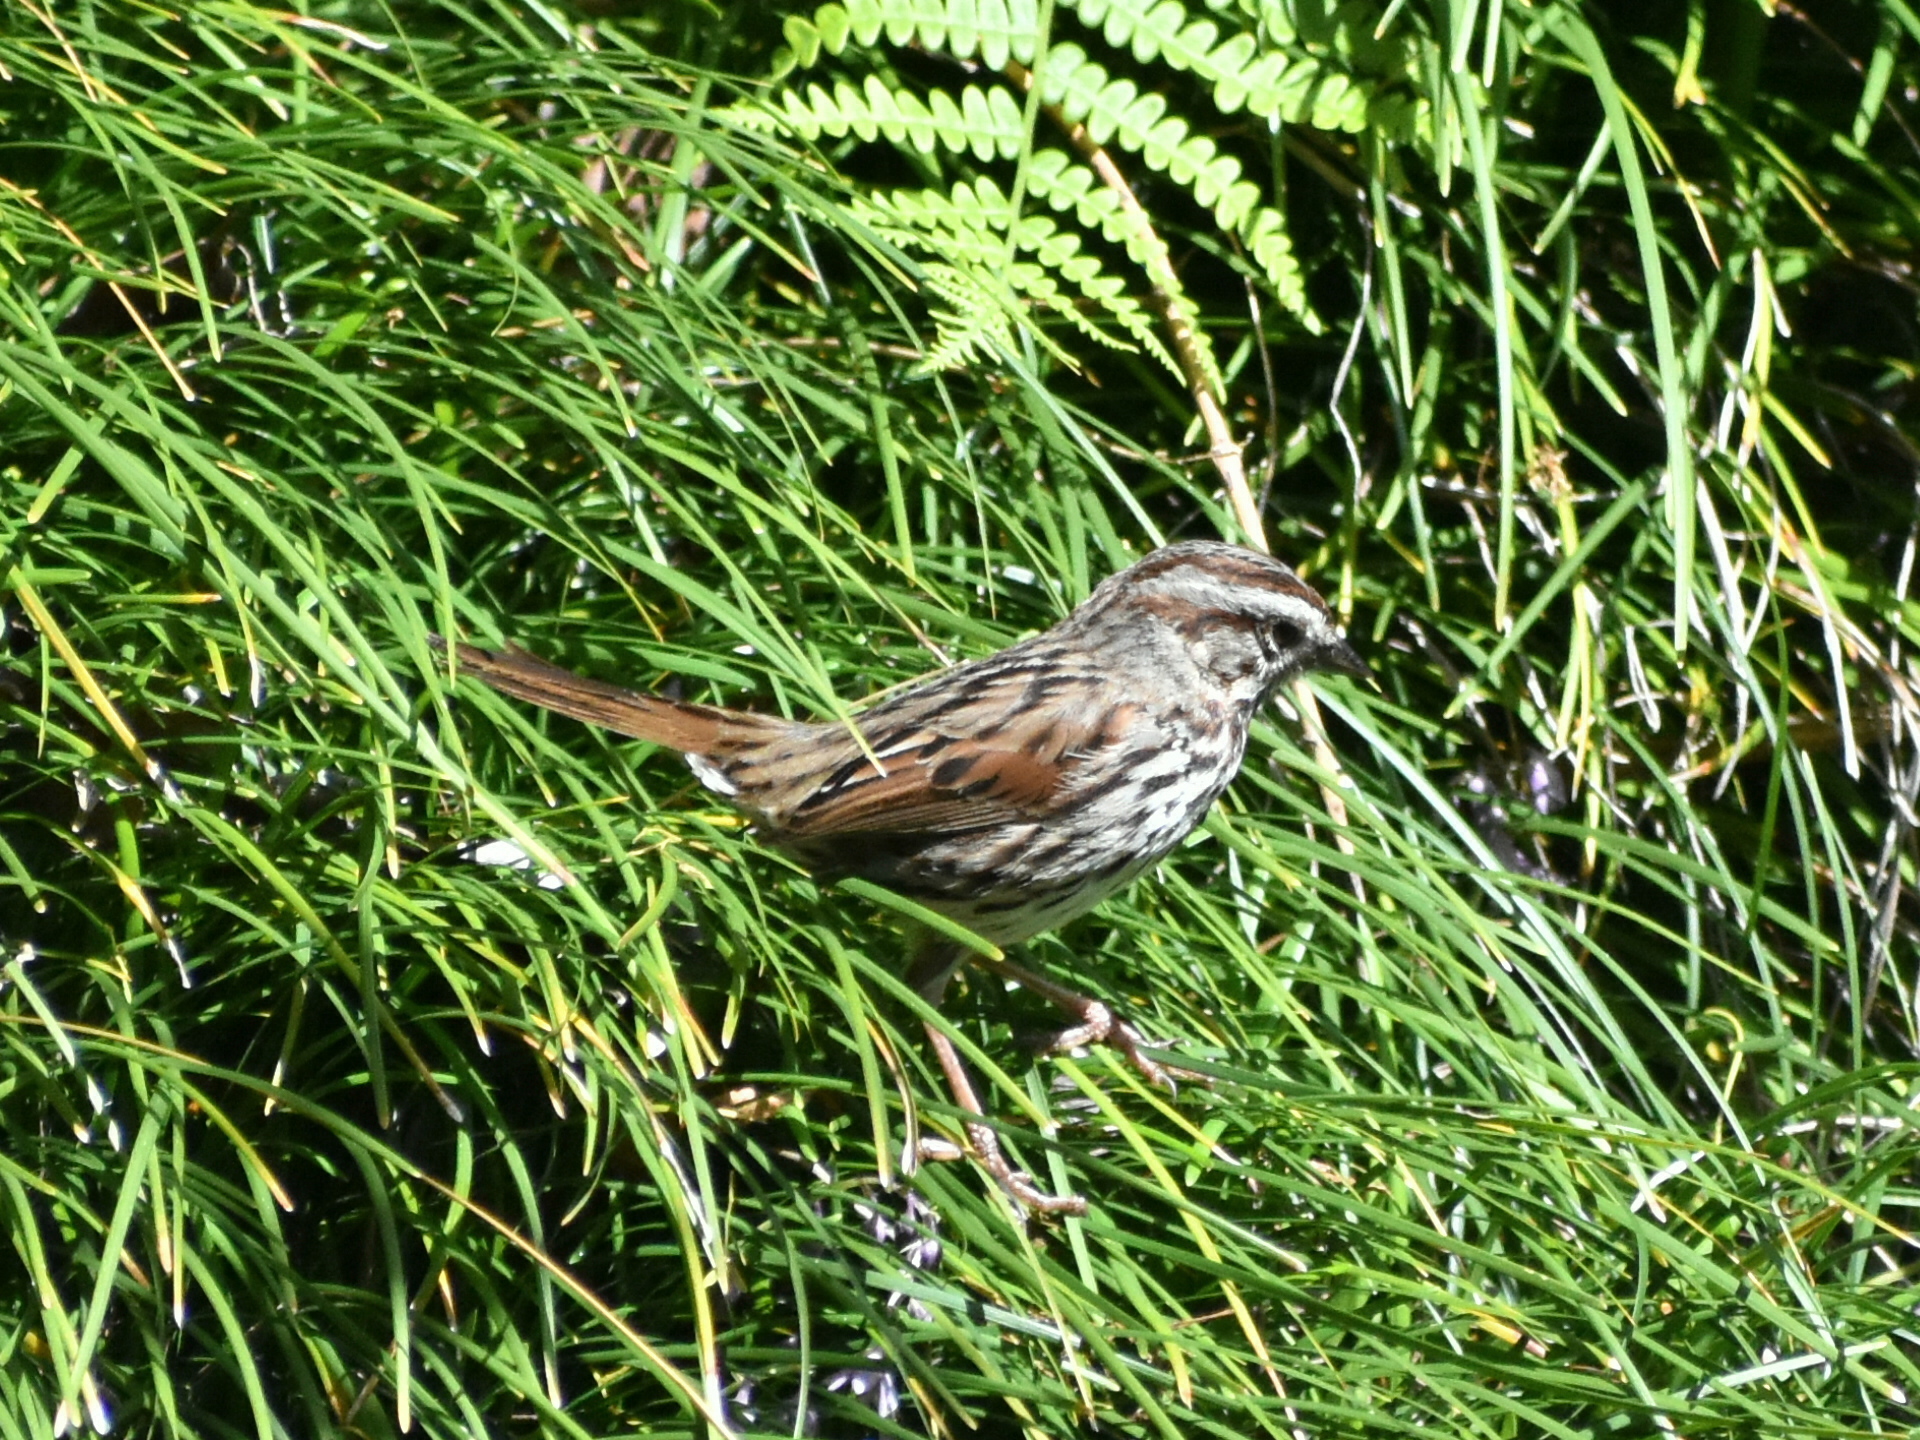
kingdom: Animalia
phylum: Chordata
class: Aves
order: Passeriformes
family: Passerellidae
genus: Melospiza
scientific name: Melospiza melodia
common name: Song sparrow
